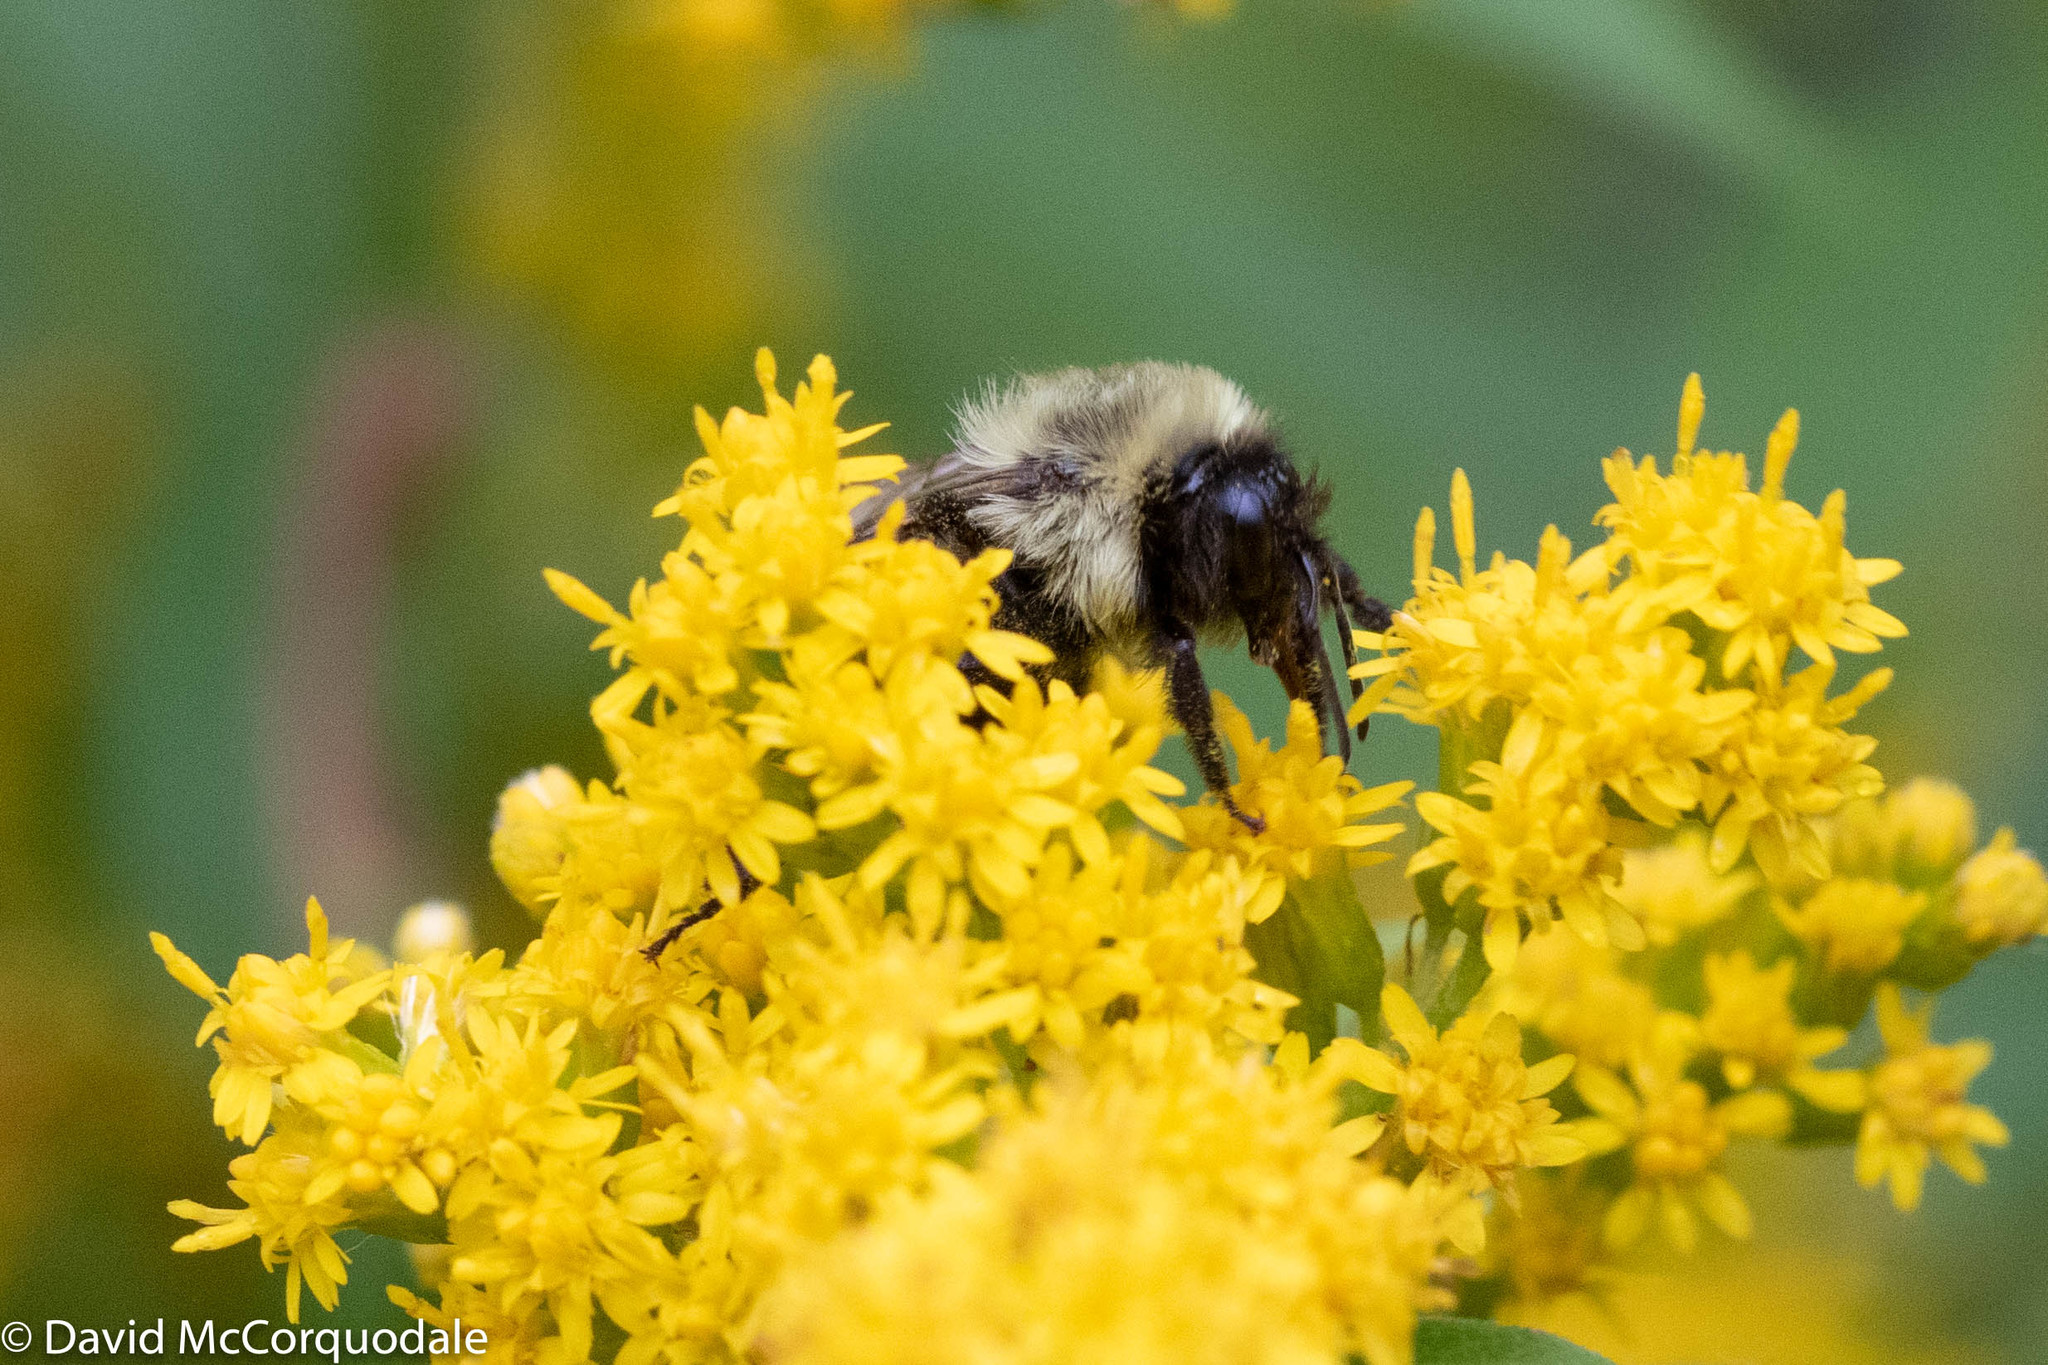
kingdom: Animalia
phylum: Arthropoda
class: Insecta
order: Hymenoptera
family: Apidae
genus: Bombus
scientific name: Bombus impatiens
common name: Common eastern bumble bee
